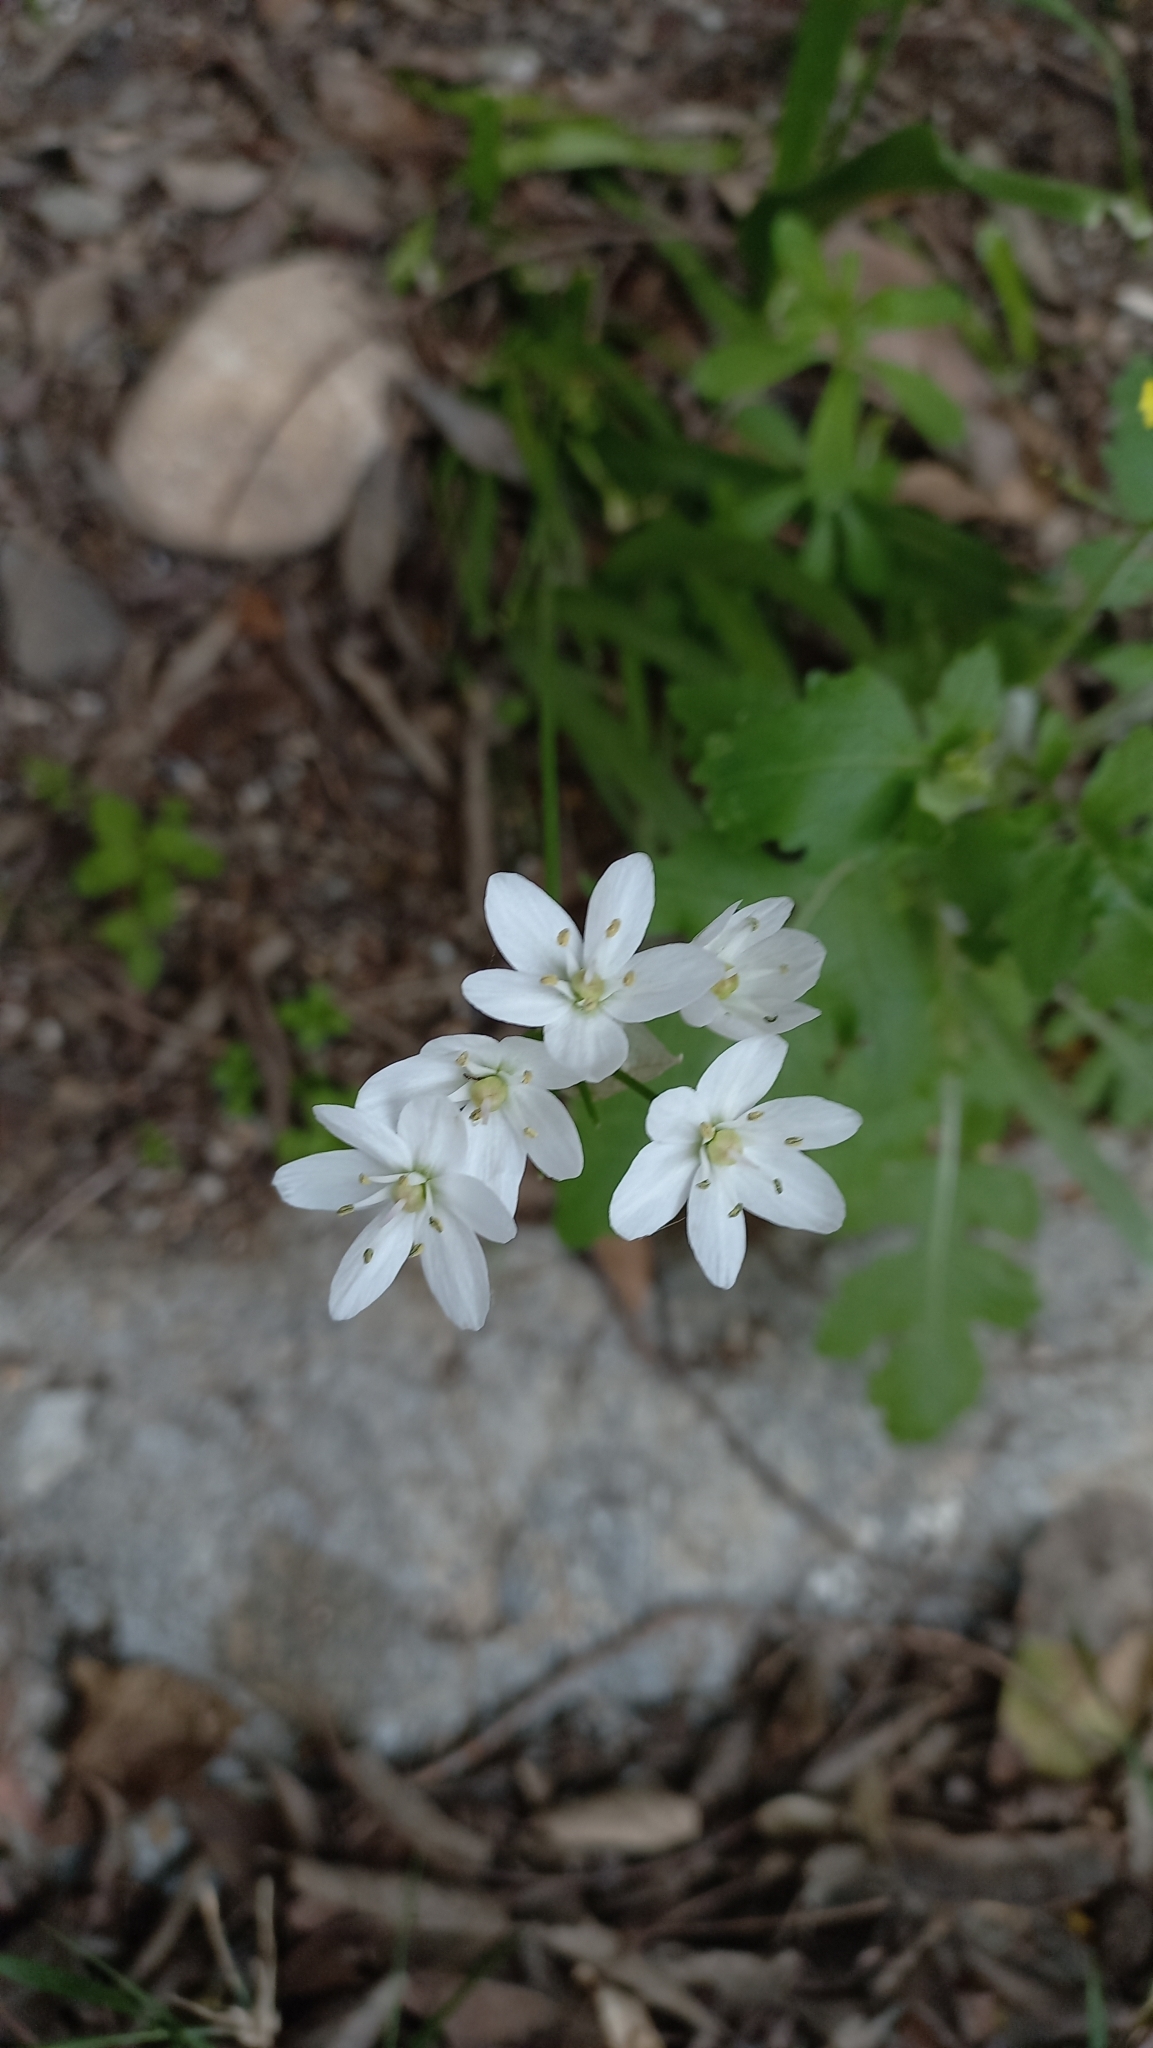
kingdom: Plantae
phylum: Tracheophyta
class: Liliopsida
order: Asparagales
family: Amaryllidaceae
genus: Allium
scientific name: Allium neapolitanum
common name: Neapolitan garlic
